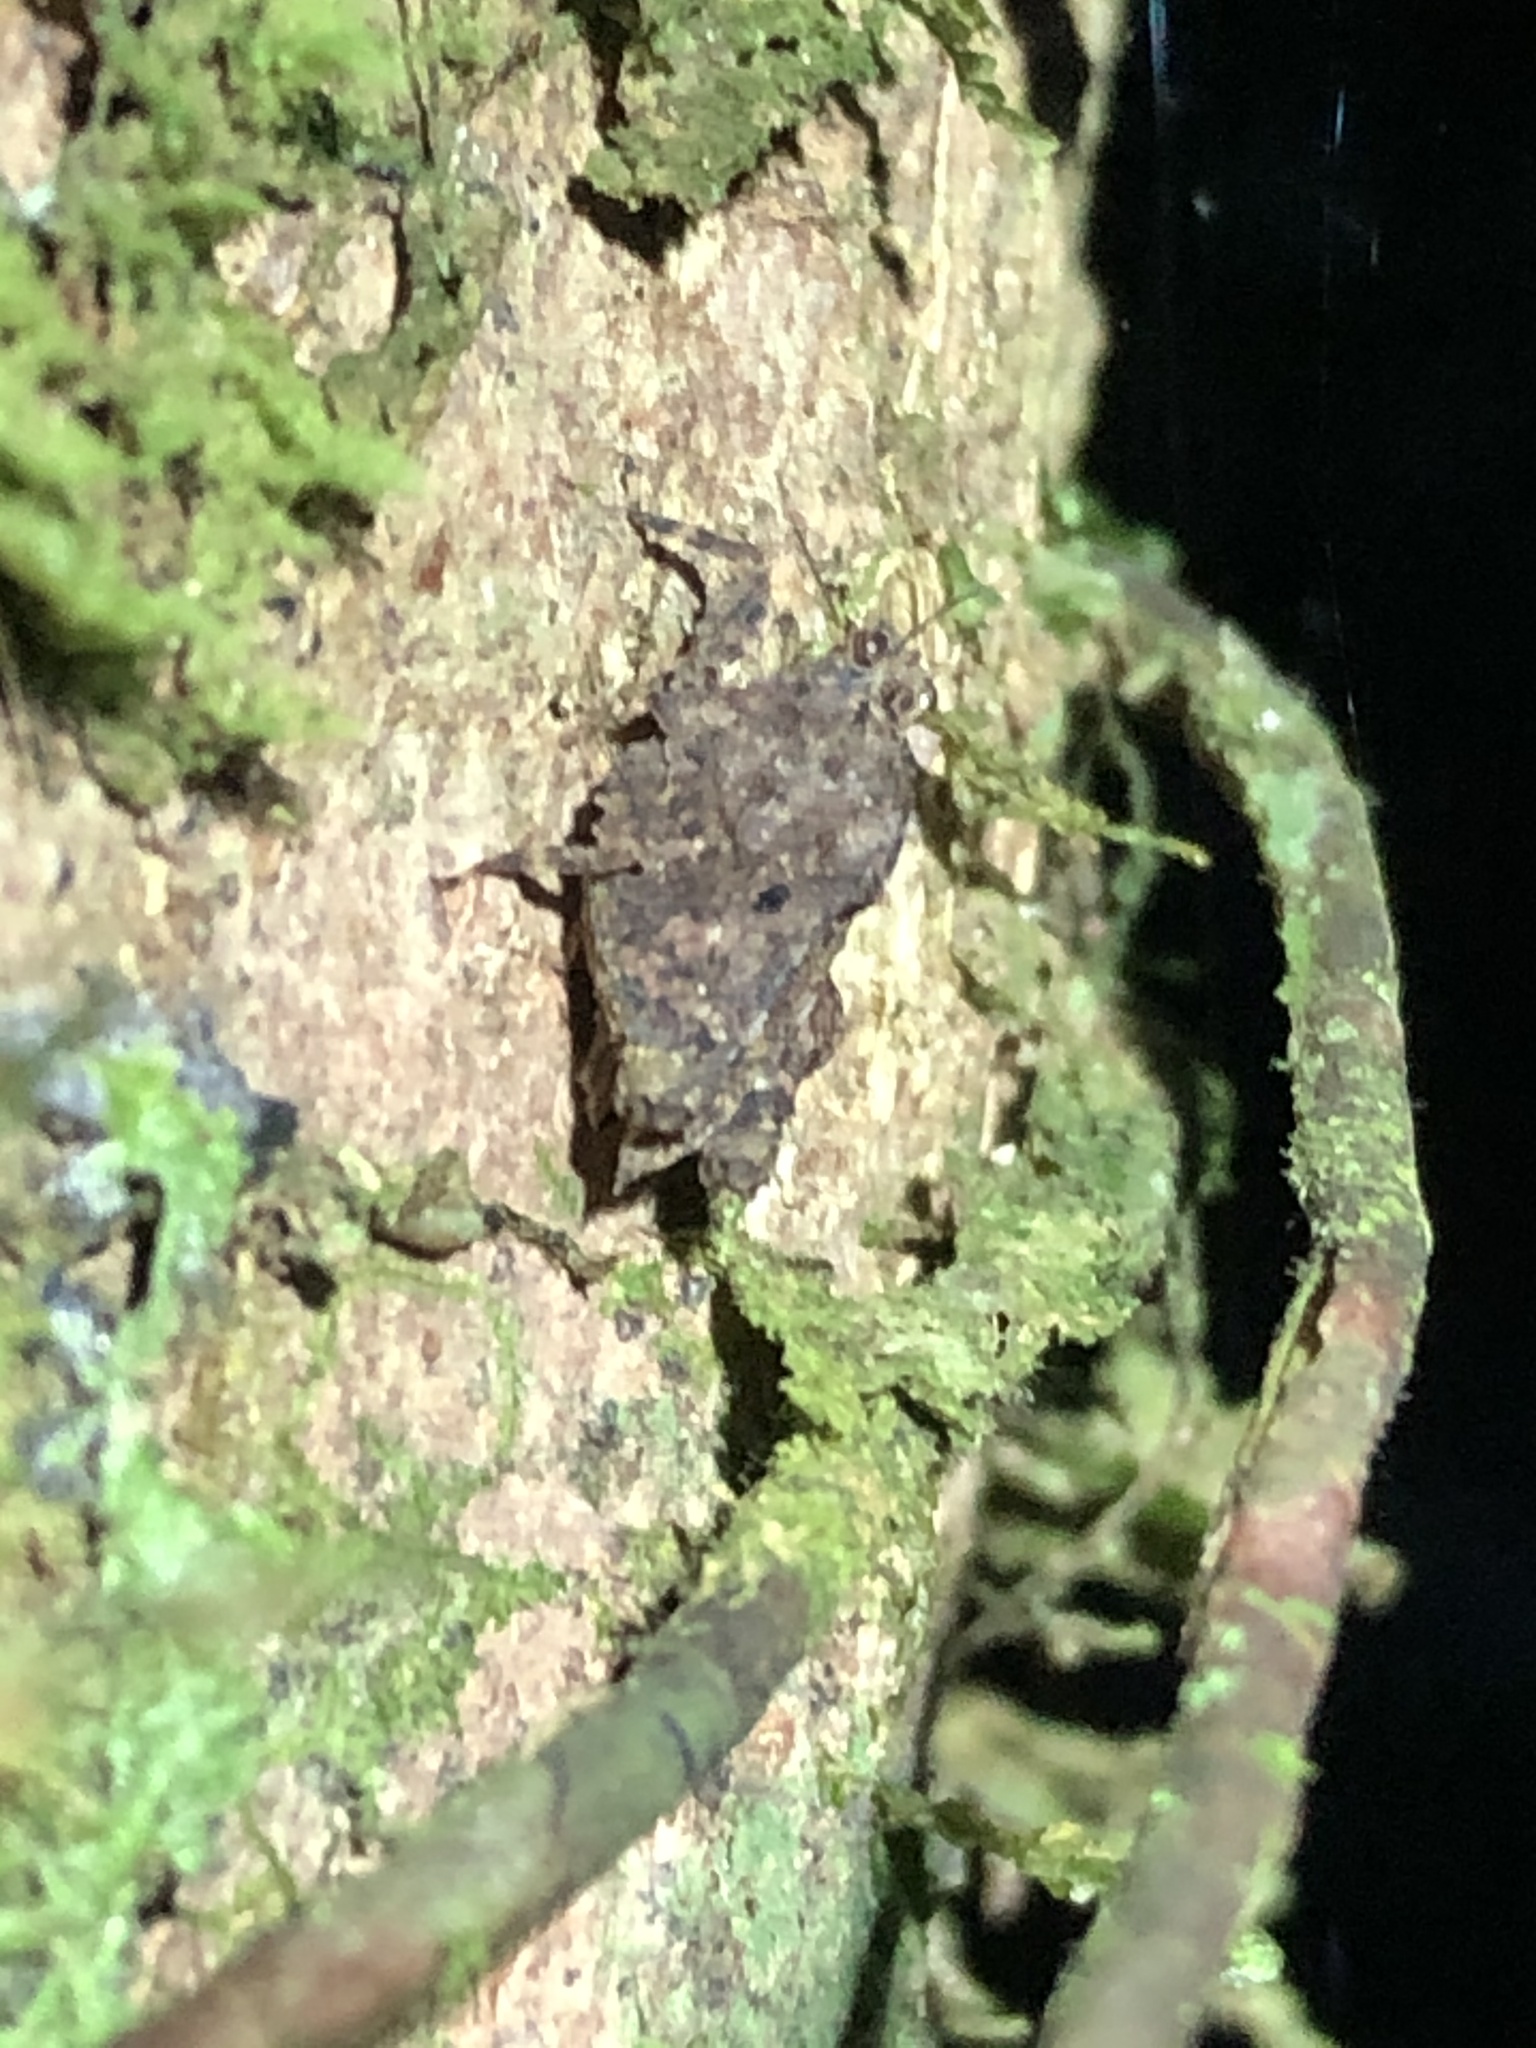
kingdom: Animalia
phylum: Arthropoda
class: Insecta
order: Orthoptera
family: Tetrigidae
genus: Metrodora
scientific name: Metrodora gibbosula
